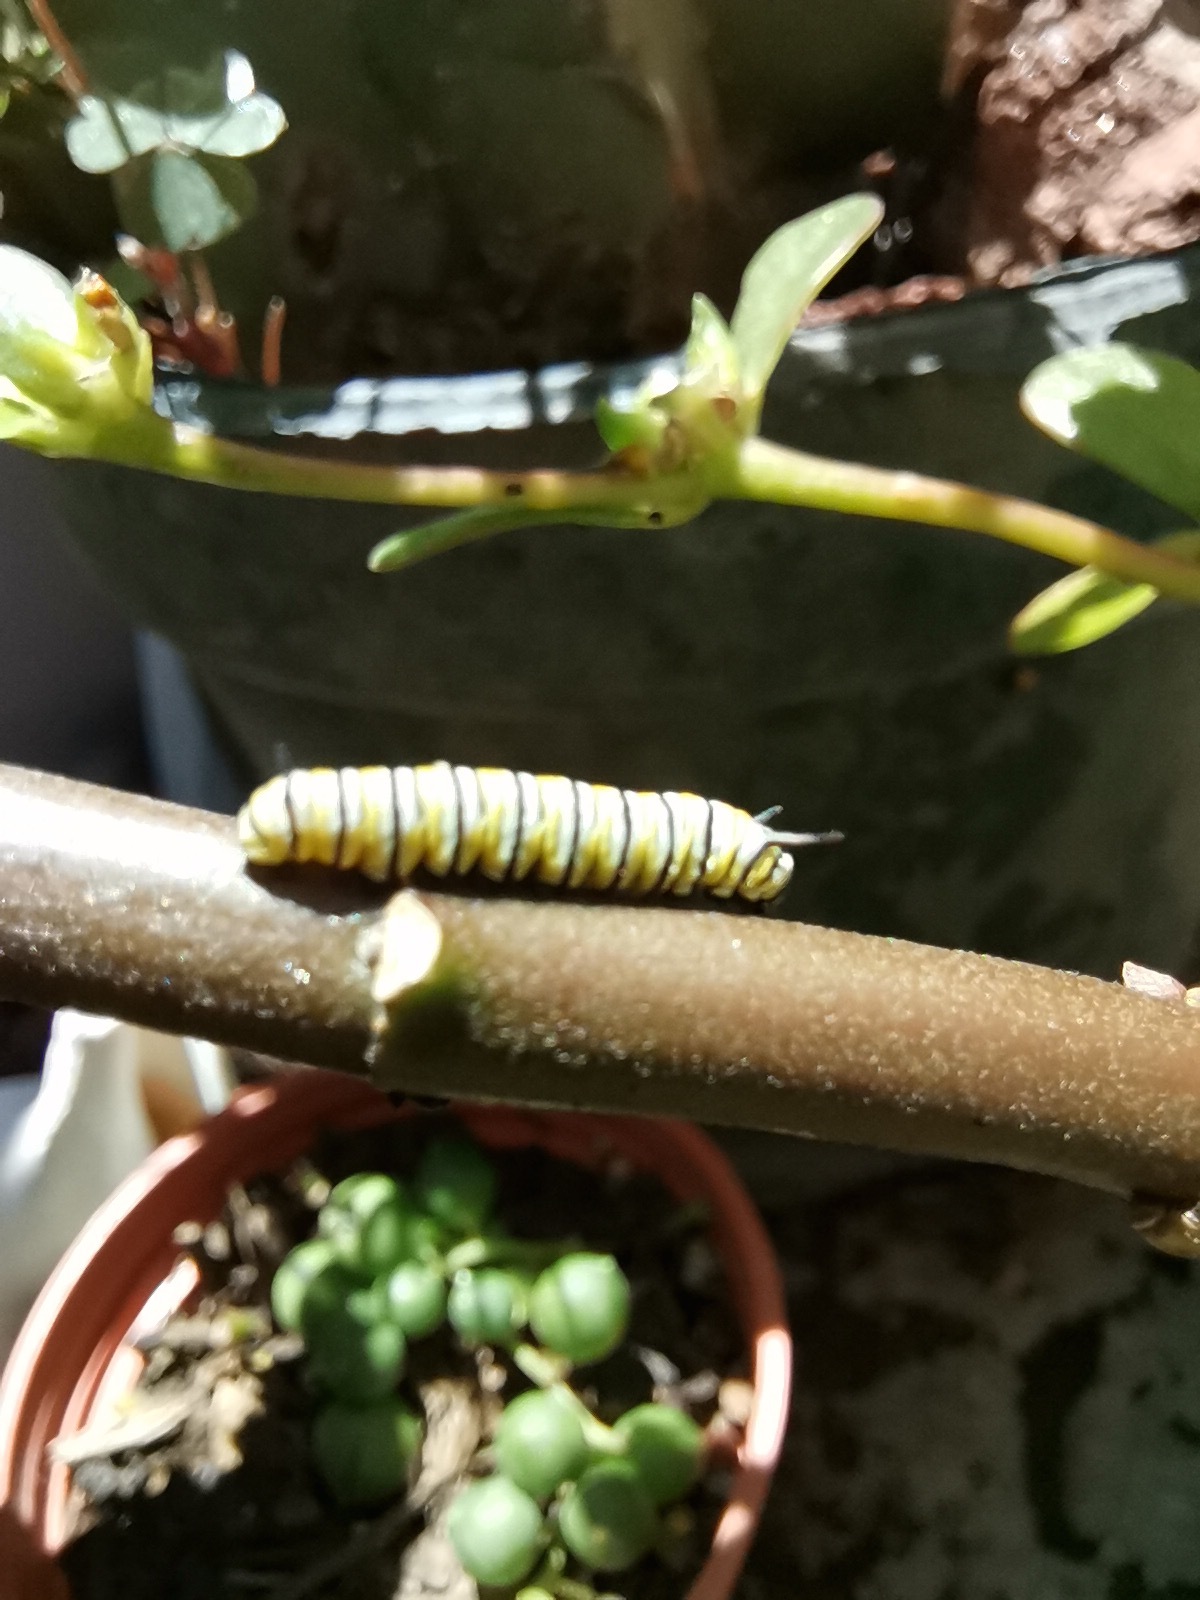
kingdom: Animalia
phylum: Arthropoda
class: Insecta
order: Lepidoptera
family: Nymphalidae
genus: Danaus
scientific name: Danaus plexippus
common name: Monarch
